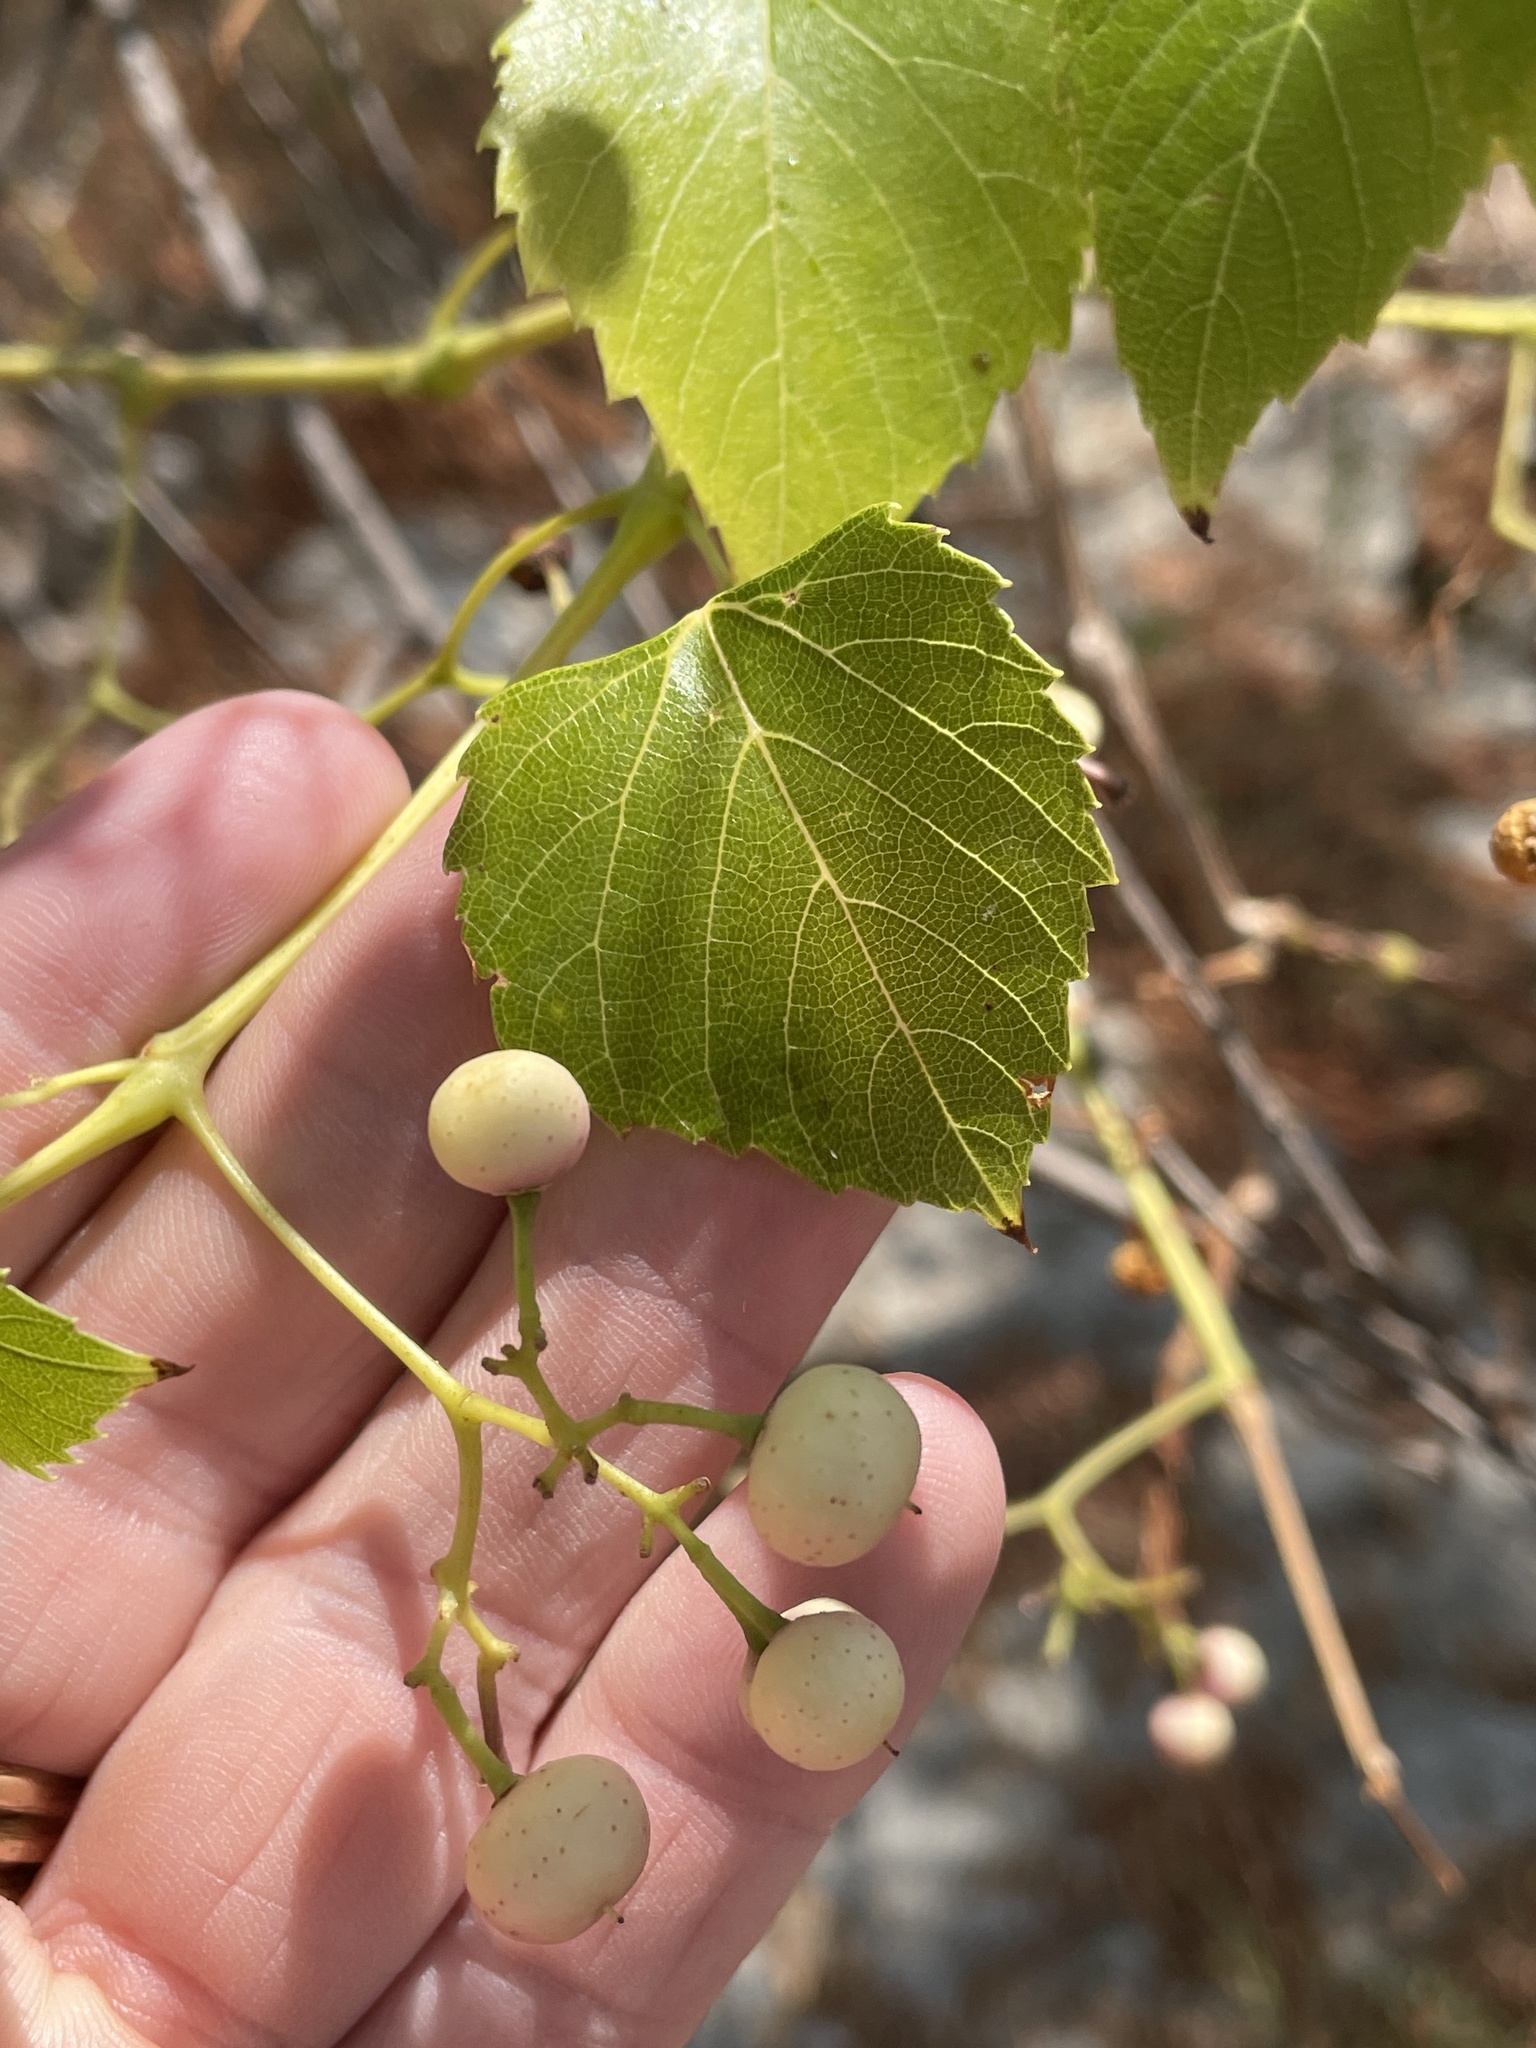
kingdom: Plantae
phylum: Tracheophyta
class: Magnoliopsida
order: Vitales
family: Vitaceae
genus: Ampelopsis
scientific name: Ampelopsis cordata
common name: Heart-leaf ampelopsis
